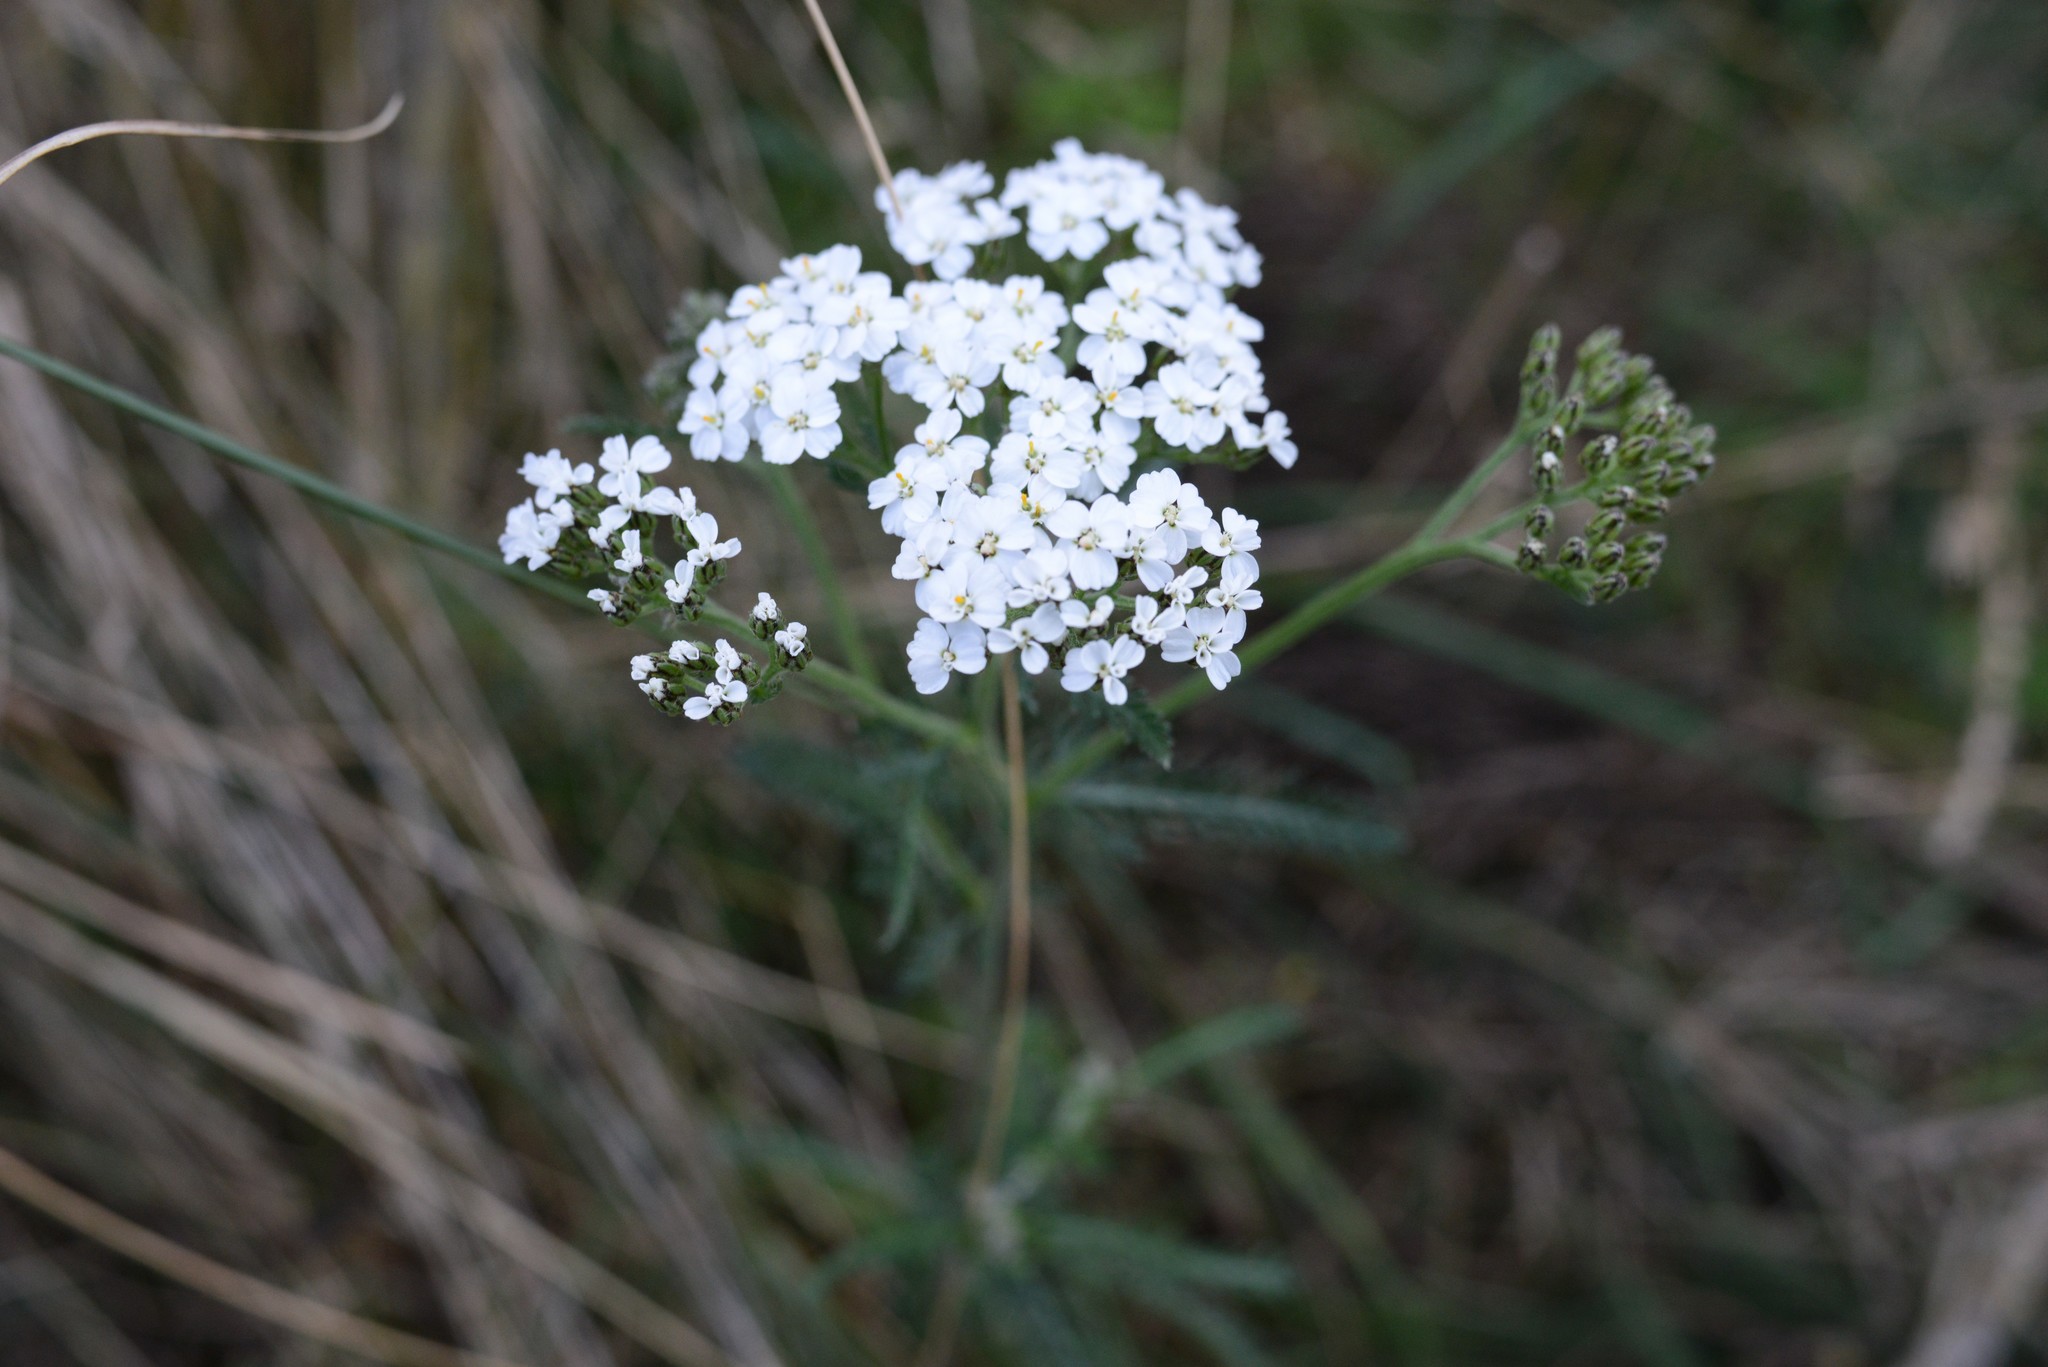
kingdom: Plantae
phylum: Tracheophyta
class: Magnoliopsida
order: Asterales
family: Asteraceae
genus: Achillea
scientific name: Achillea millefolium
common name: Yarrow
